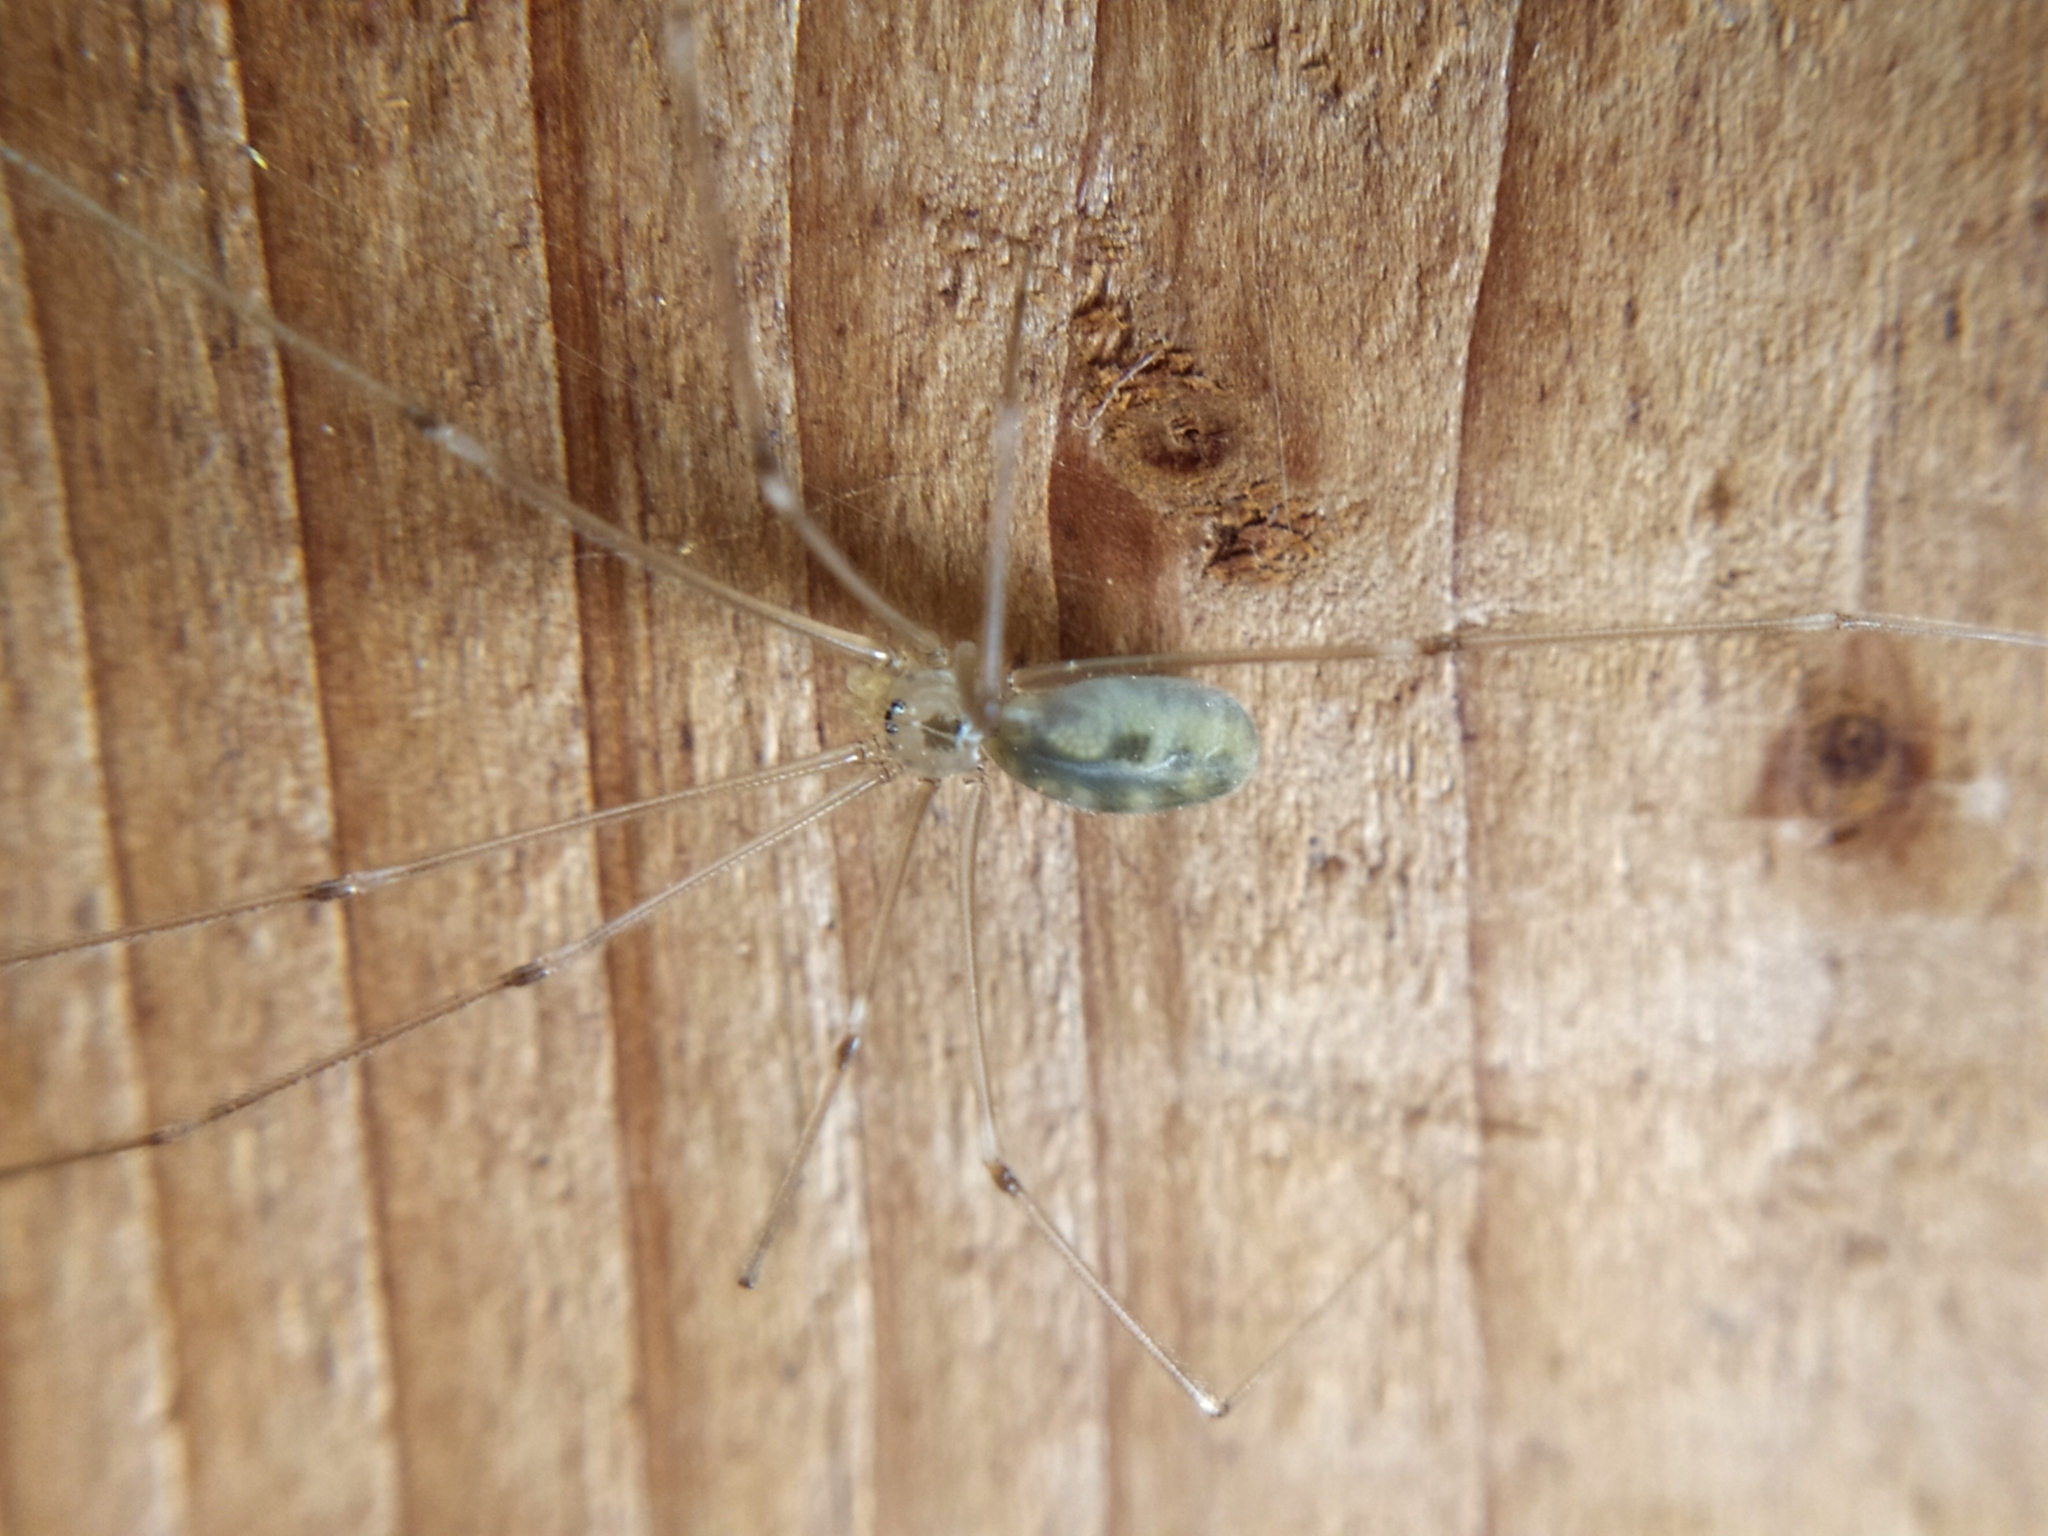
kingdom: Animalia
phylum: Arthropoda
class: Arachnida
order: Araneae
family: Pholcidae
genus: Pholcus
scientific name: Pholcus phalangioides
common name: Longbodied cellar spider
